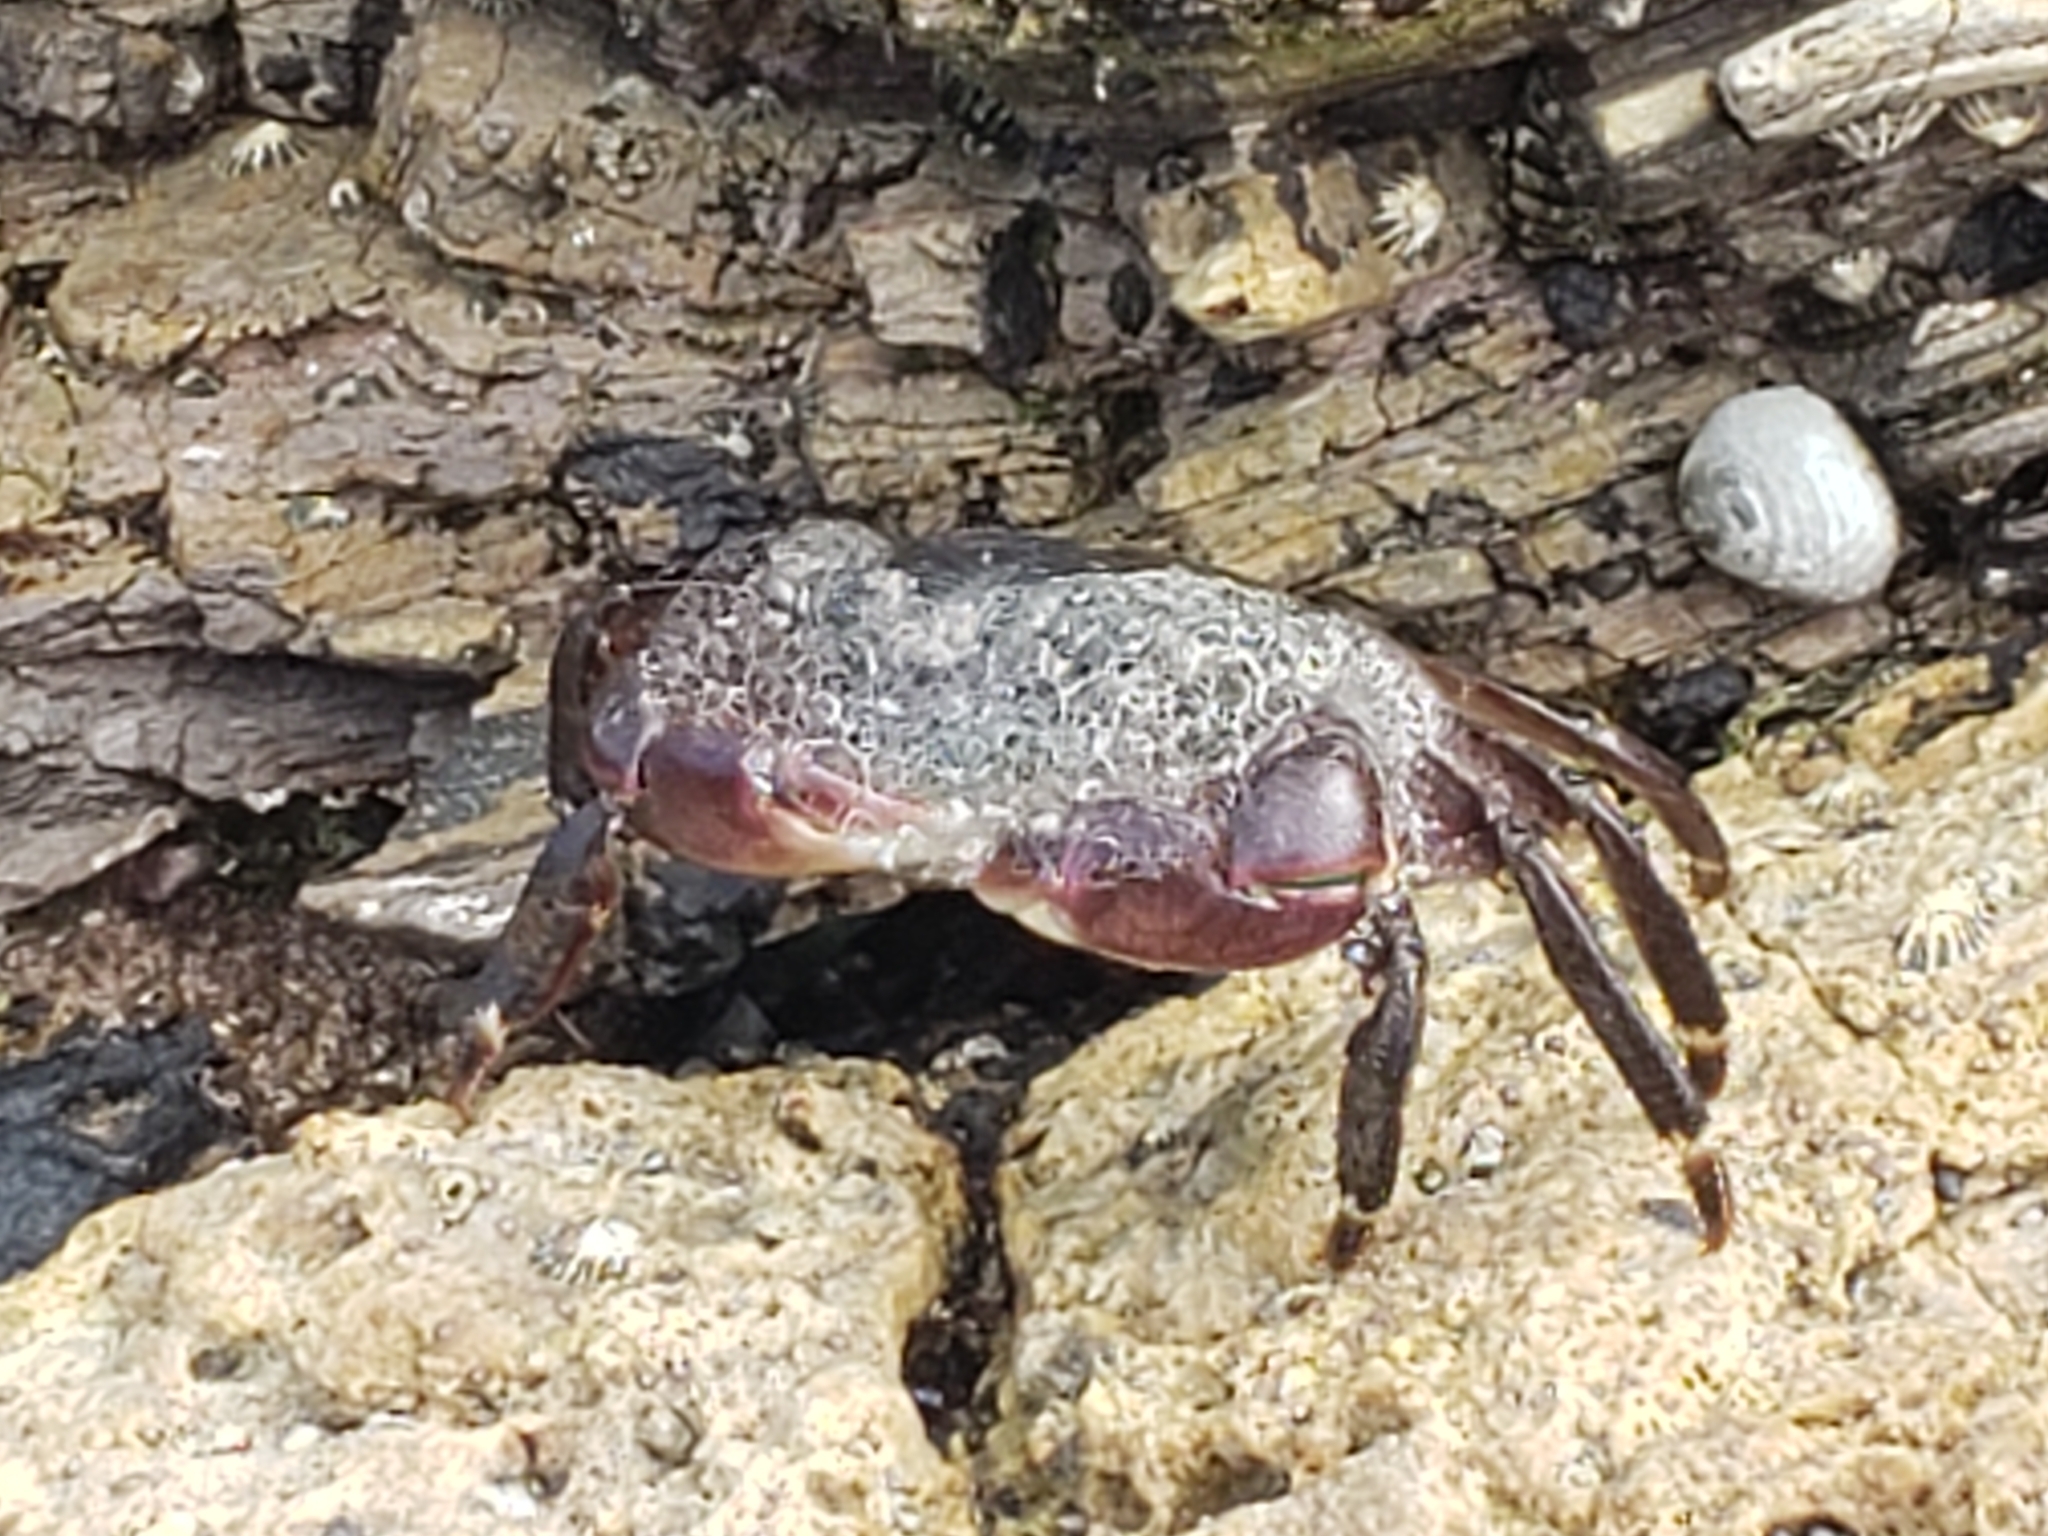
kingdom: Animalia
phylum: Arthropoda
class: Malacostraca
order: Decapoda
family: Grapsidae
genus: Pachygrapsus
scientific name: Pachygrapsus crassipes
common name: Striped shore crab
